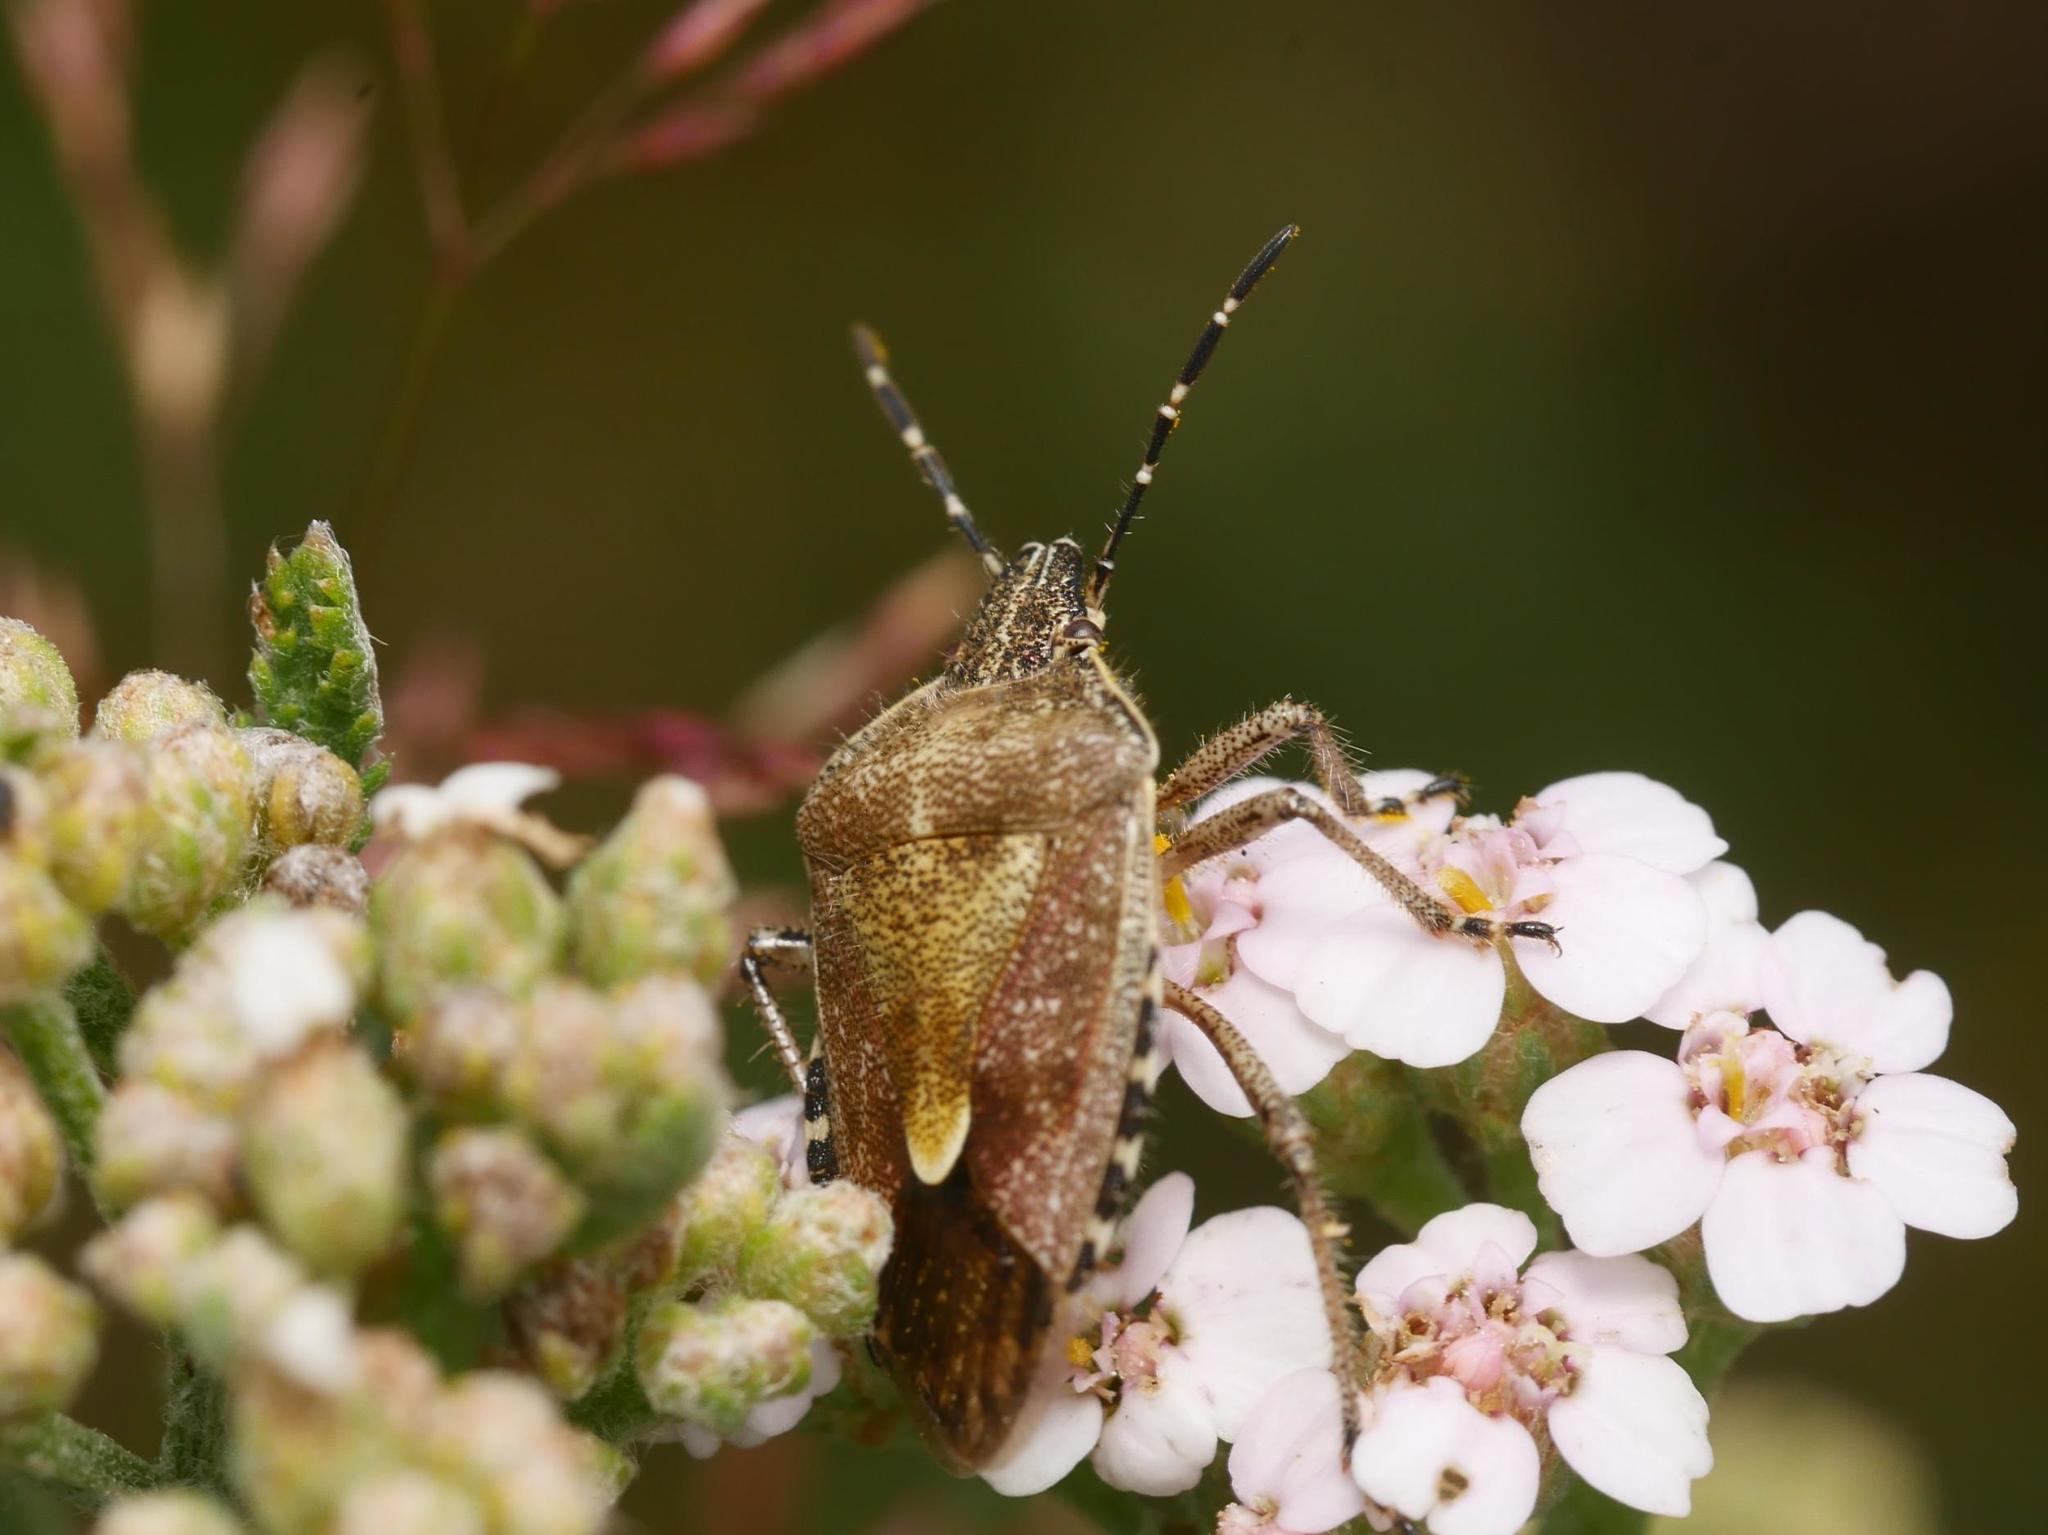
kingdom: Animalia
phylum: Arthropoda
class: Insecta
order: Hemiptera
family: Pentatomidae
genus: Dolycoris
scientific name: Dolycoris baccarum
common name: Sloe bug
